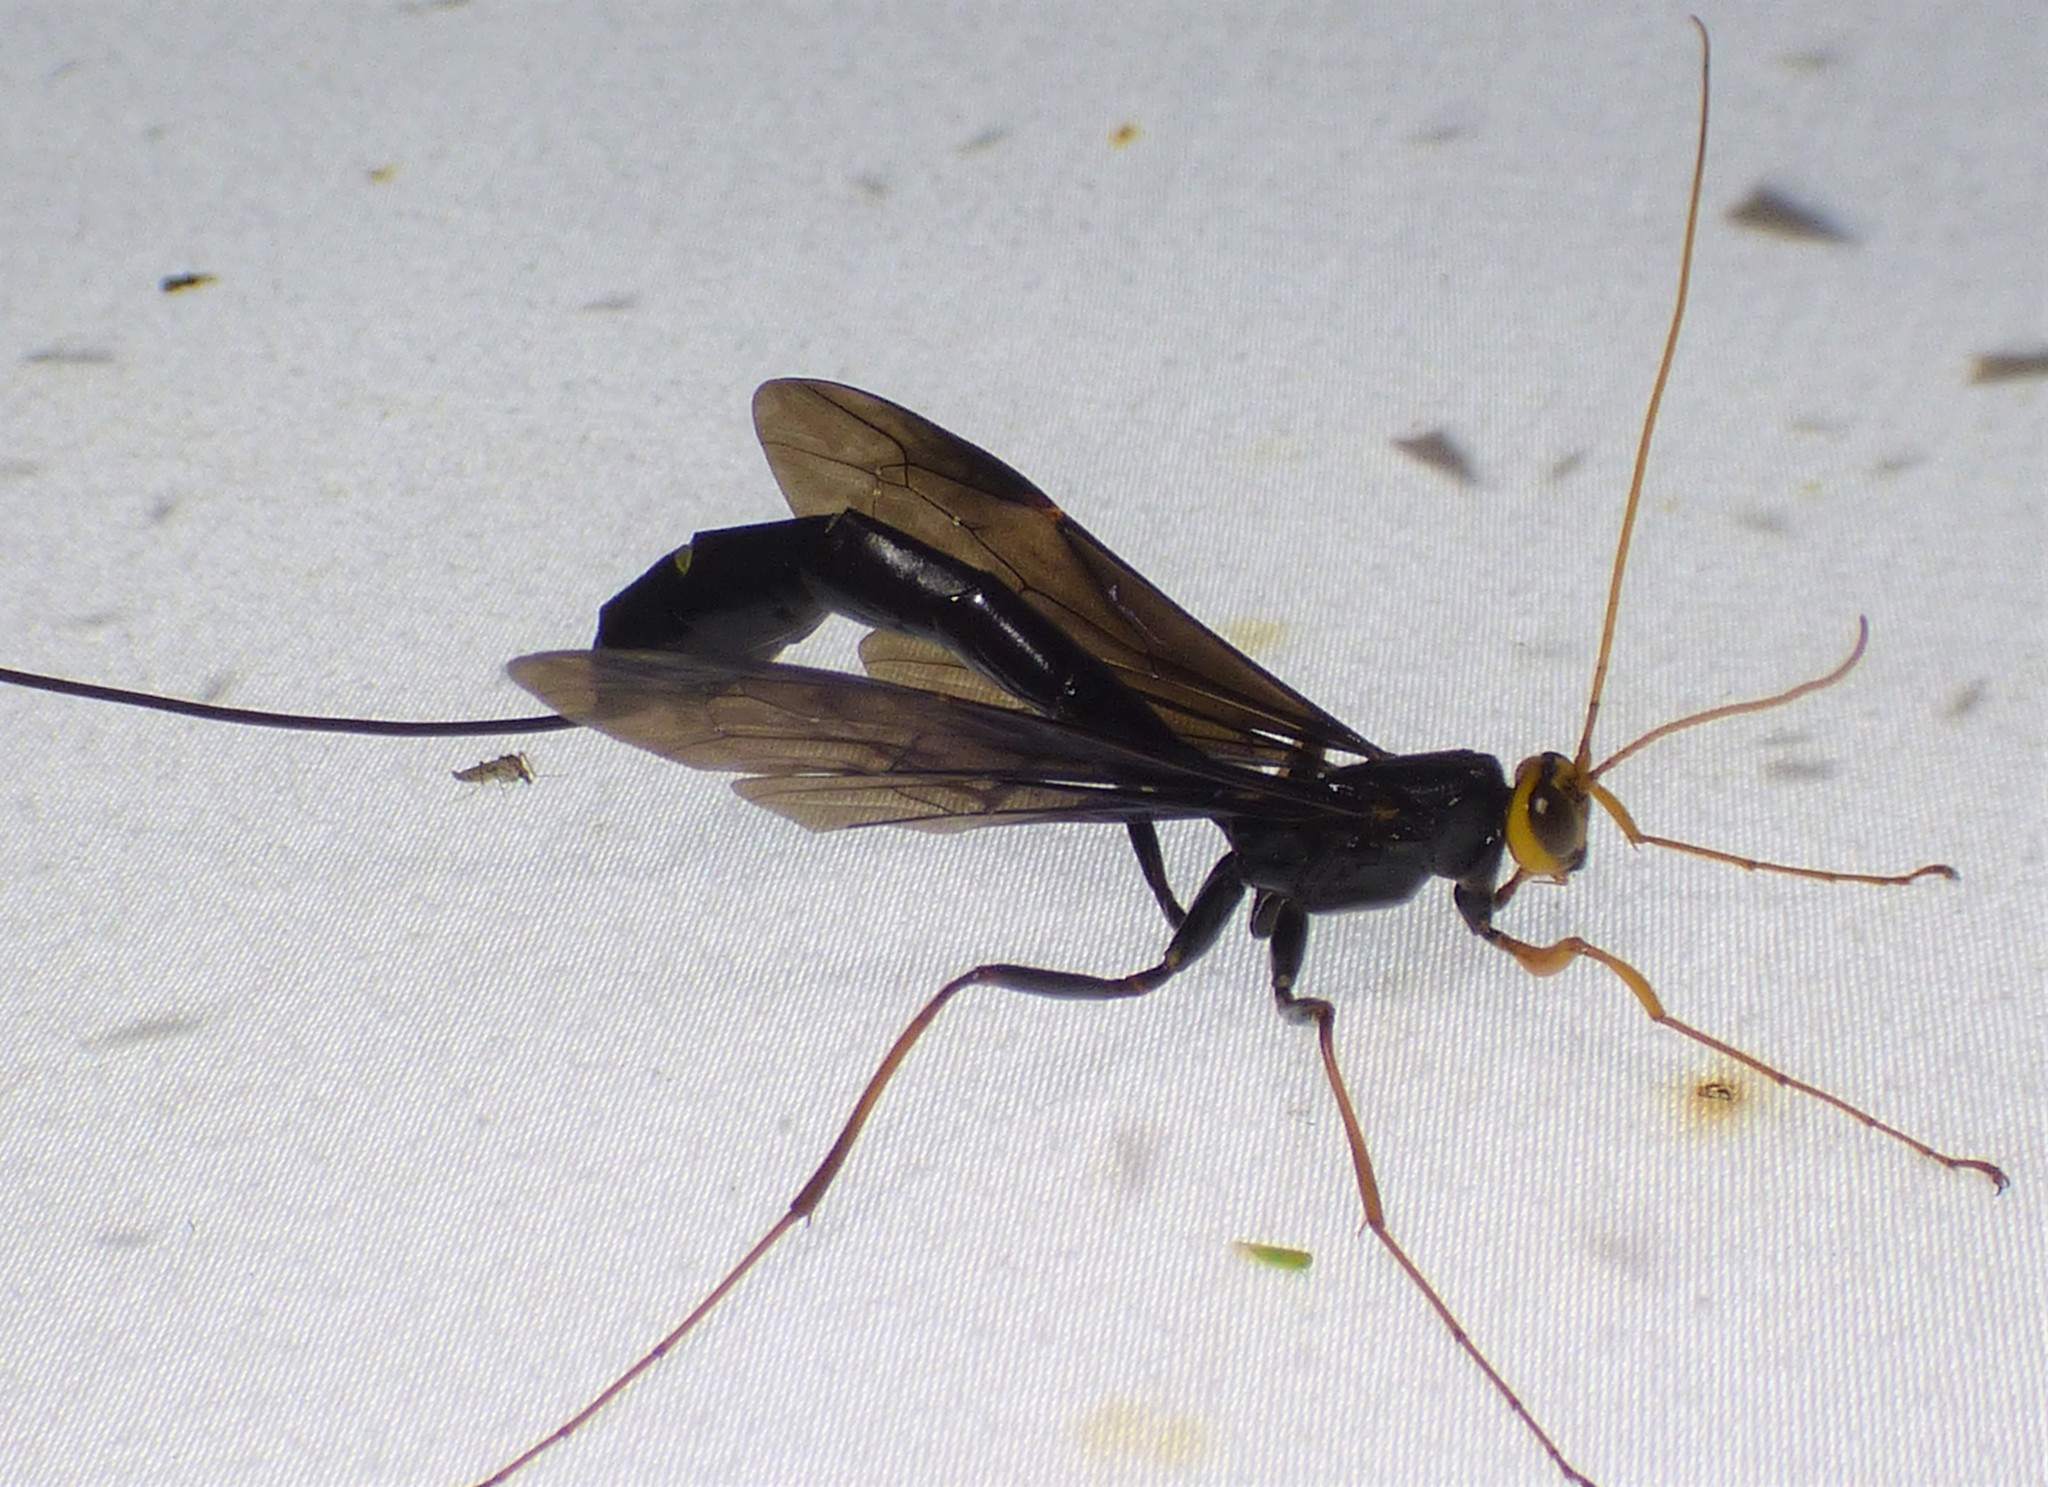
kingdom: Animalia
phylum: Arthropoda
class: Insecta
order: Hymenoptera
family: Ichneumonidae
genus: Megarhyssa
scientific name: Megarhyssa atrata
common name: Black giant ichneumonid wasp
